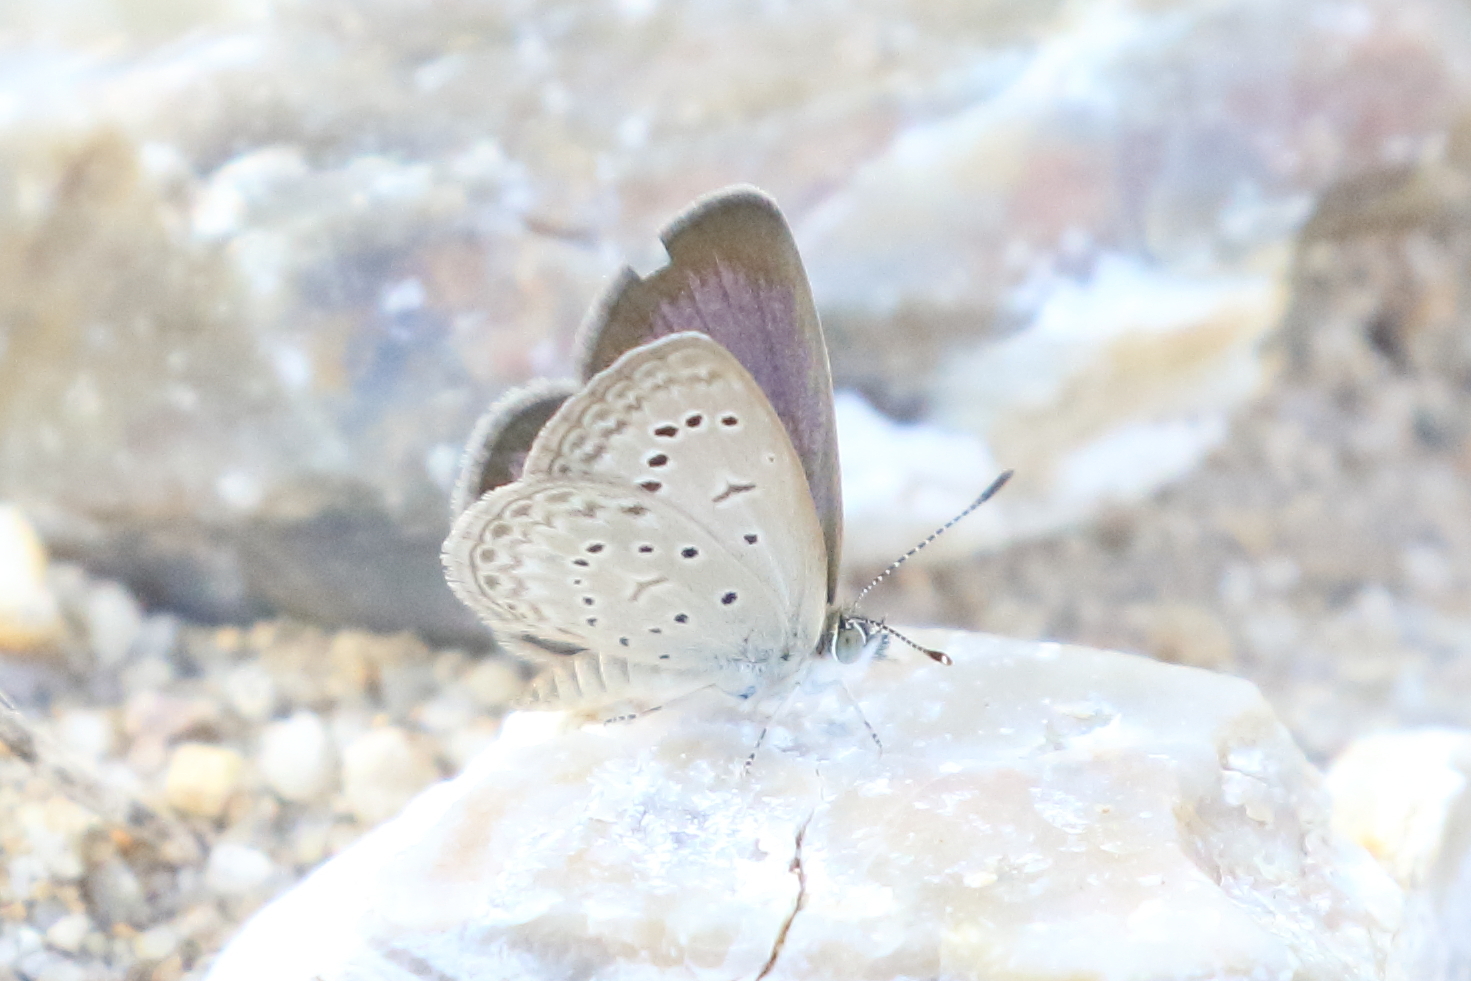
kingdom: Animalia
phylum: Arthropoda
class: Insecta
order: Lepidoptera
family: Lycaenidae
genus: Zizeeria
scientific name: Zizeeria karsandra
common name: Dark grass blue
